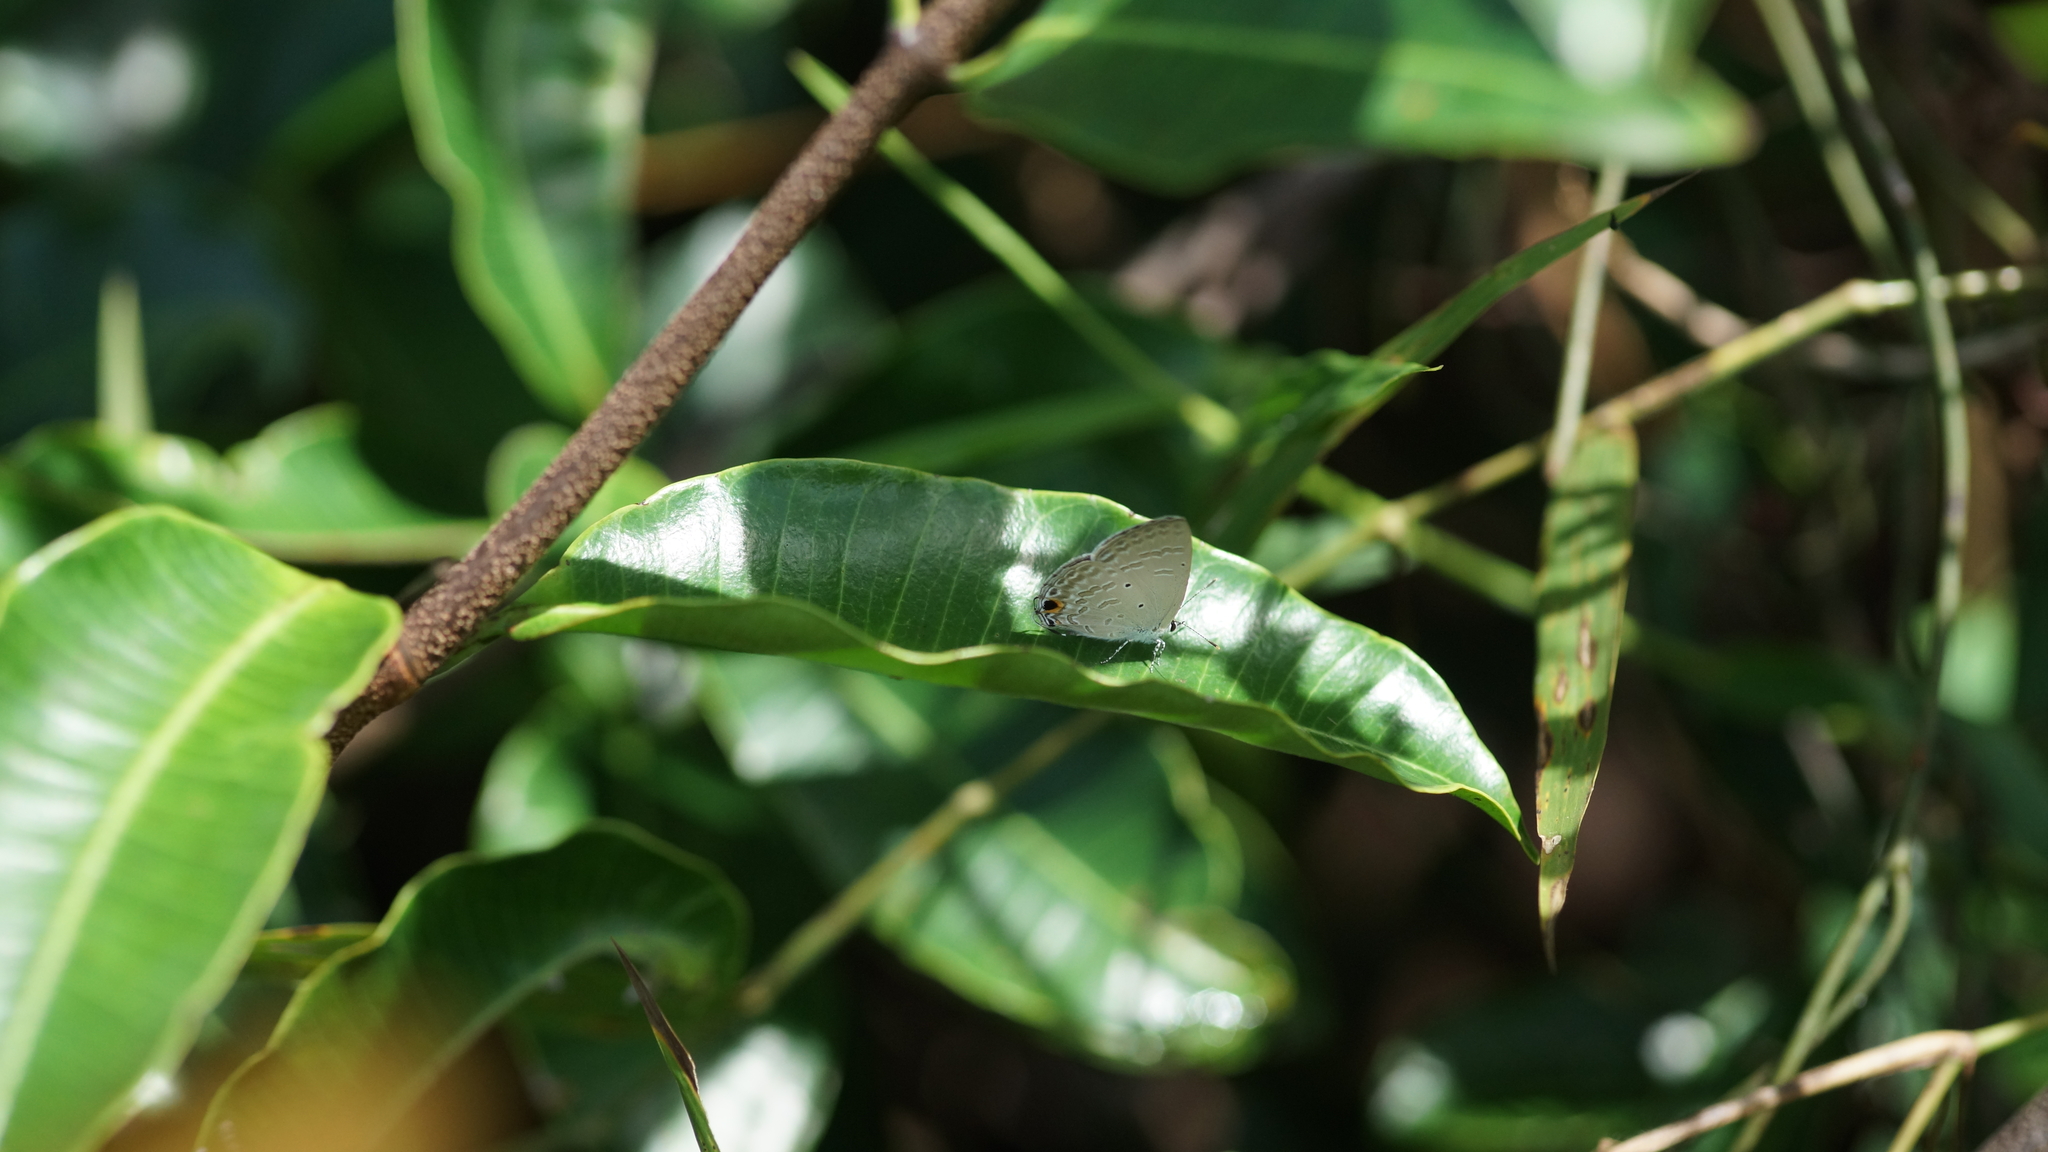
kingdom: Animalia
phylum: Arthropoda
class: Insecta
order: Lepidoptera
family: Lycaenidae
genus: Catochrysops
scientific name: Catochrysops strabo
